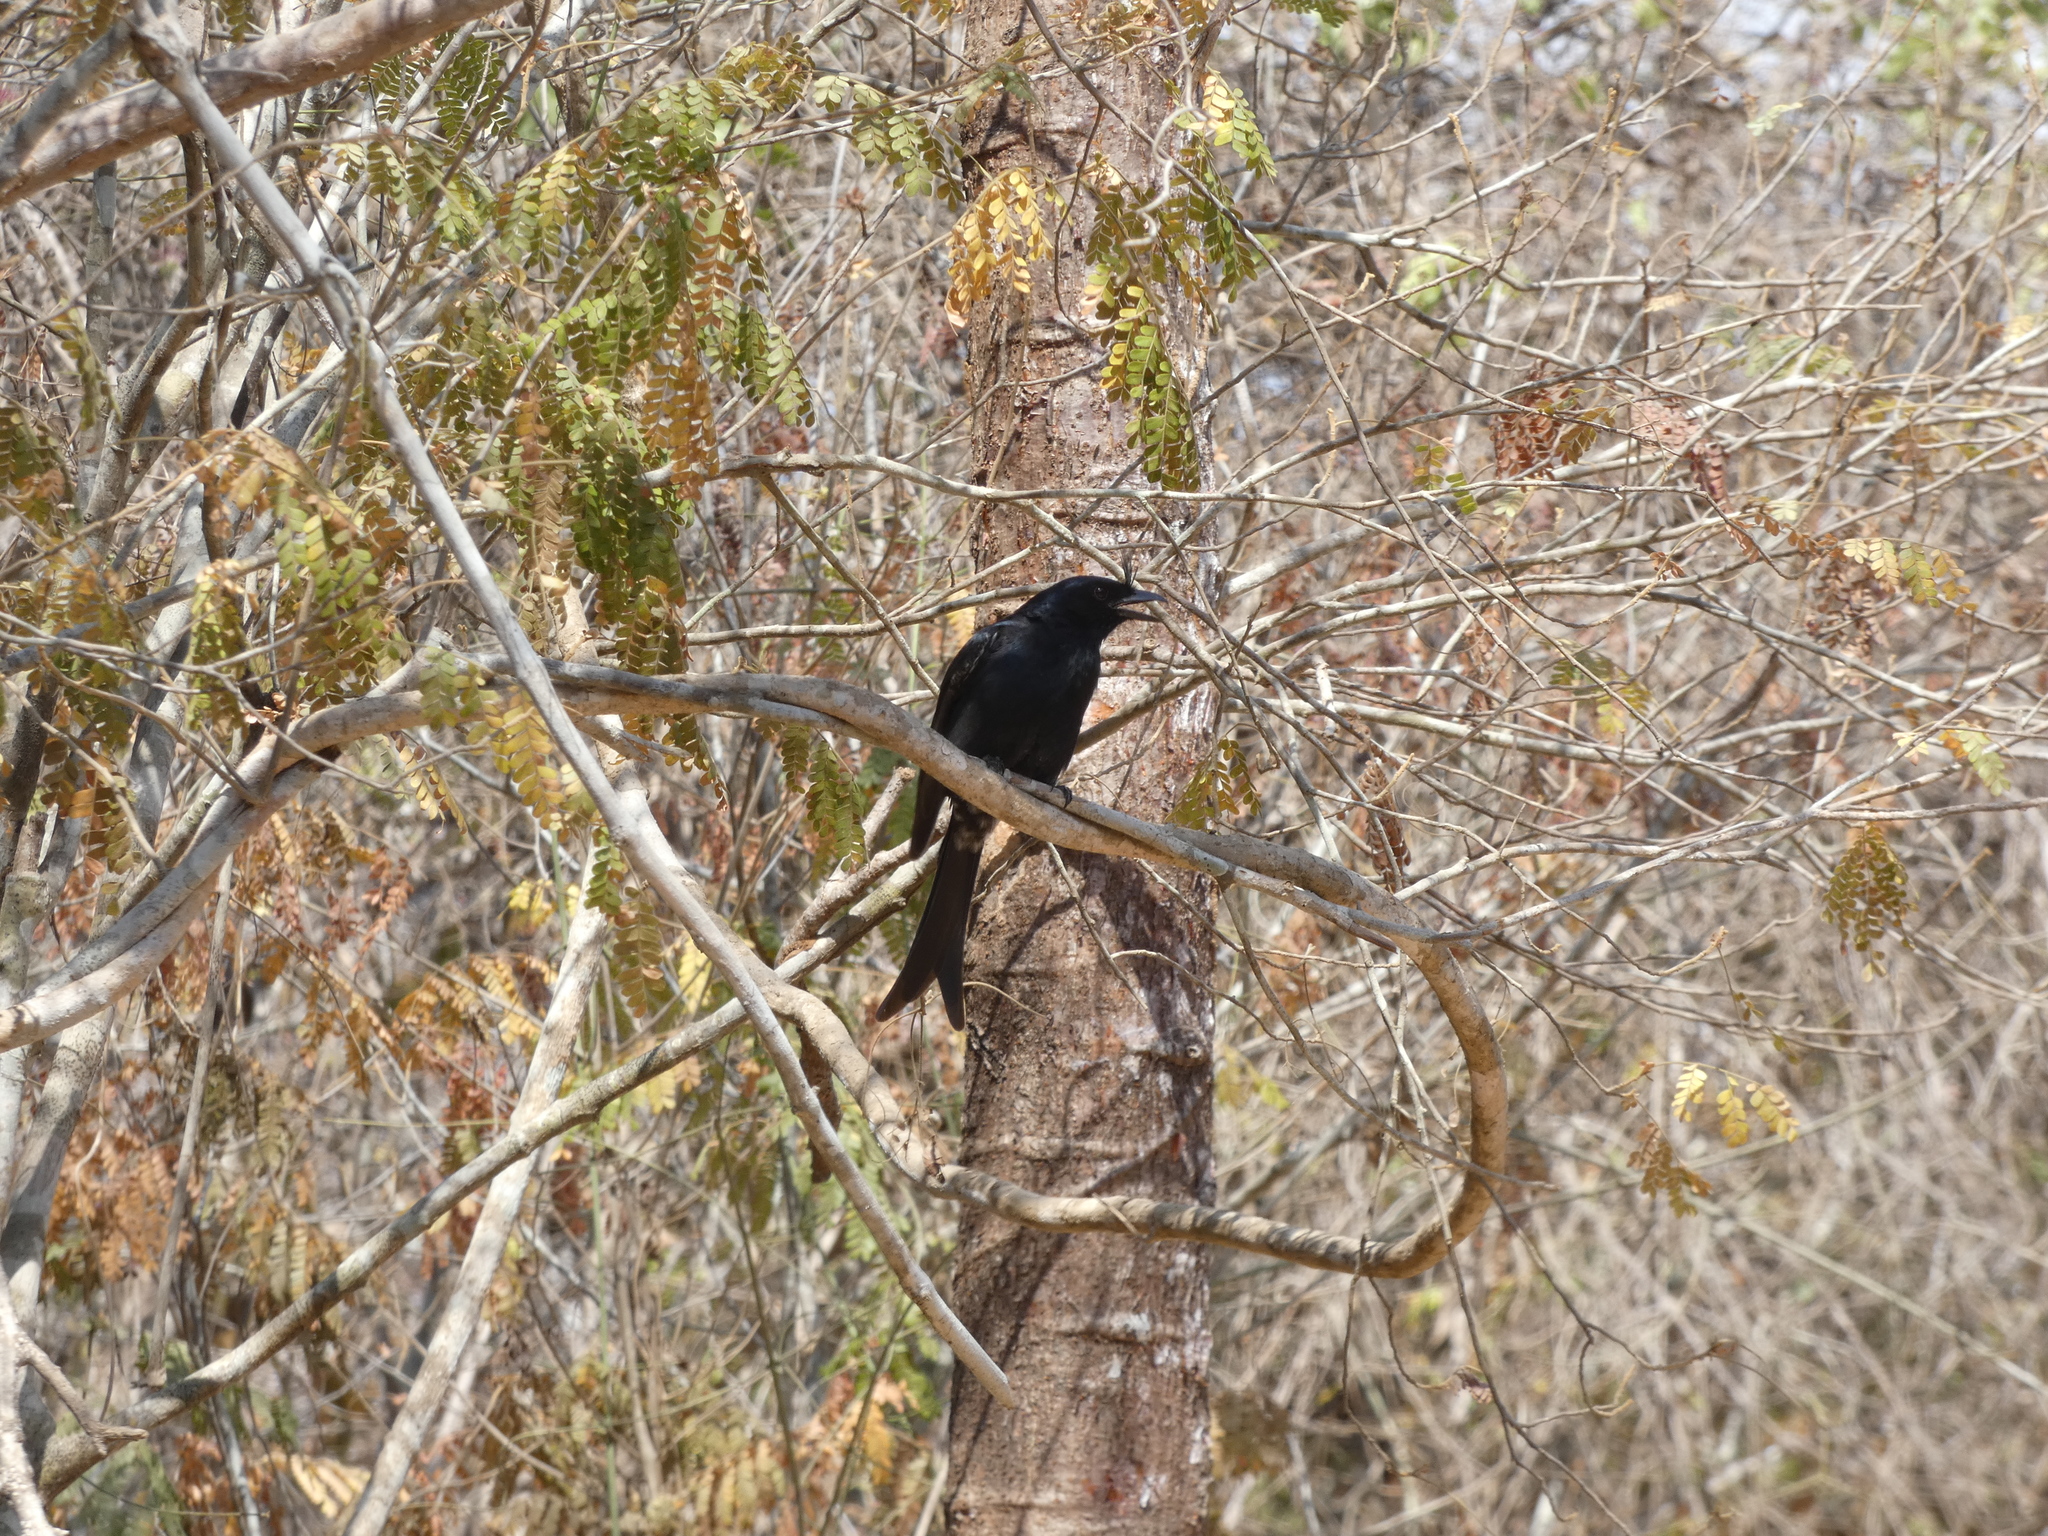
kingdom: Animalia
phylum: Chordata
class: Aves
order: Passeriformes
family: Dicruridae
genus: Dicrurus
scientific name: Dicrurus forficatus
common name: Crested drongo
